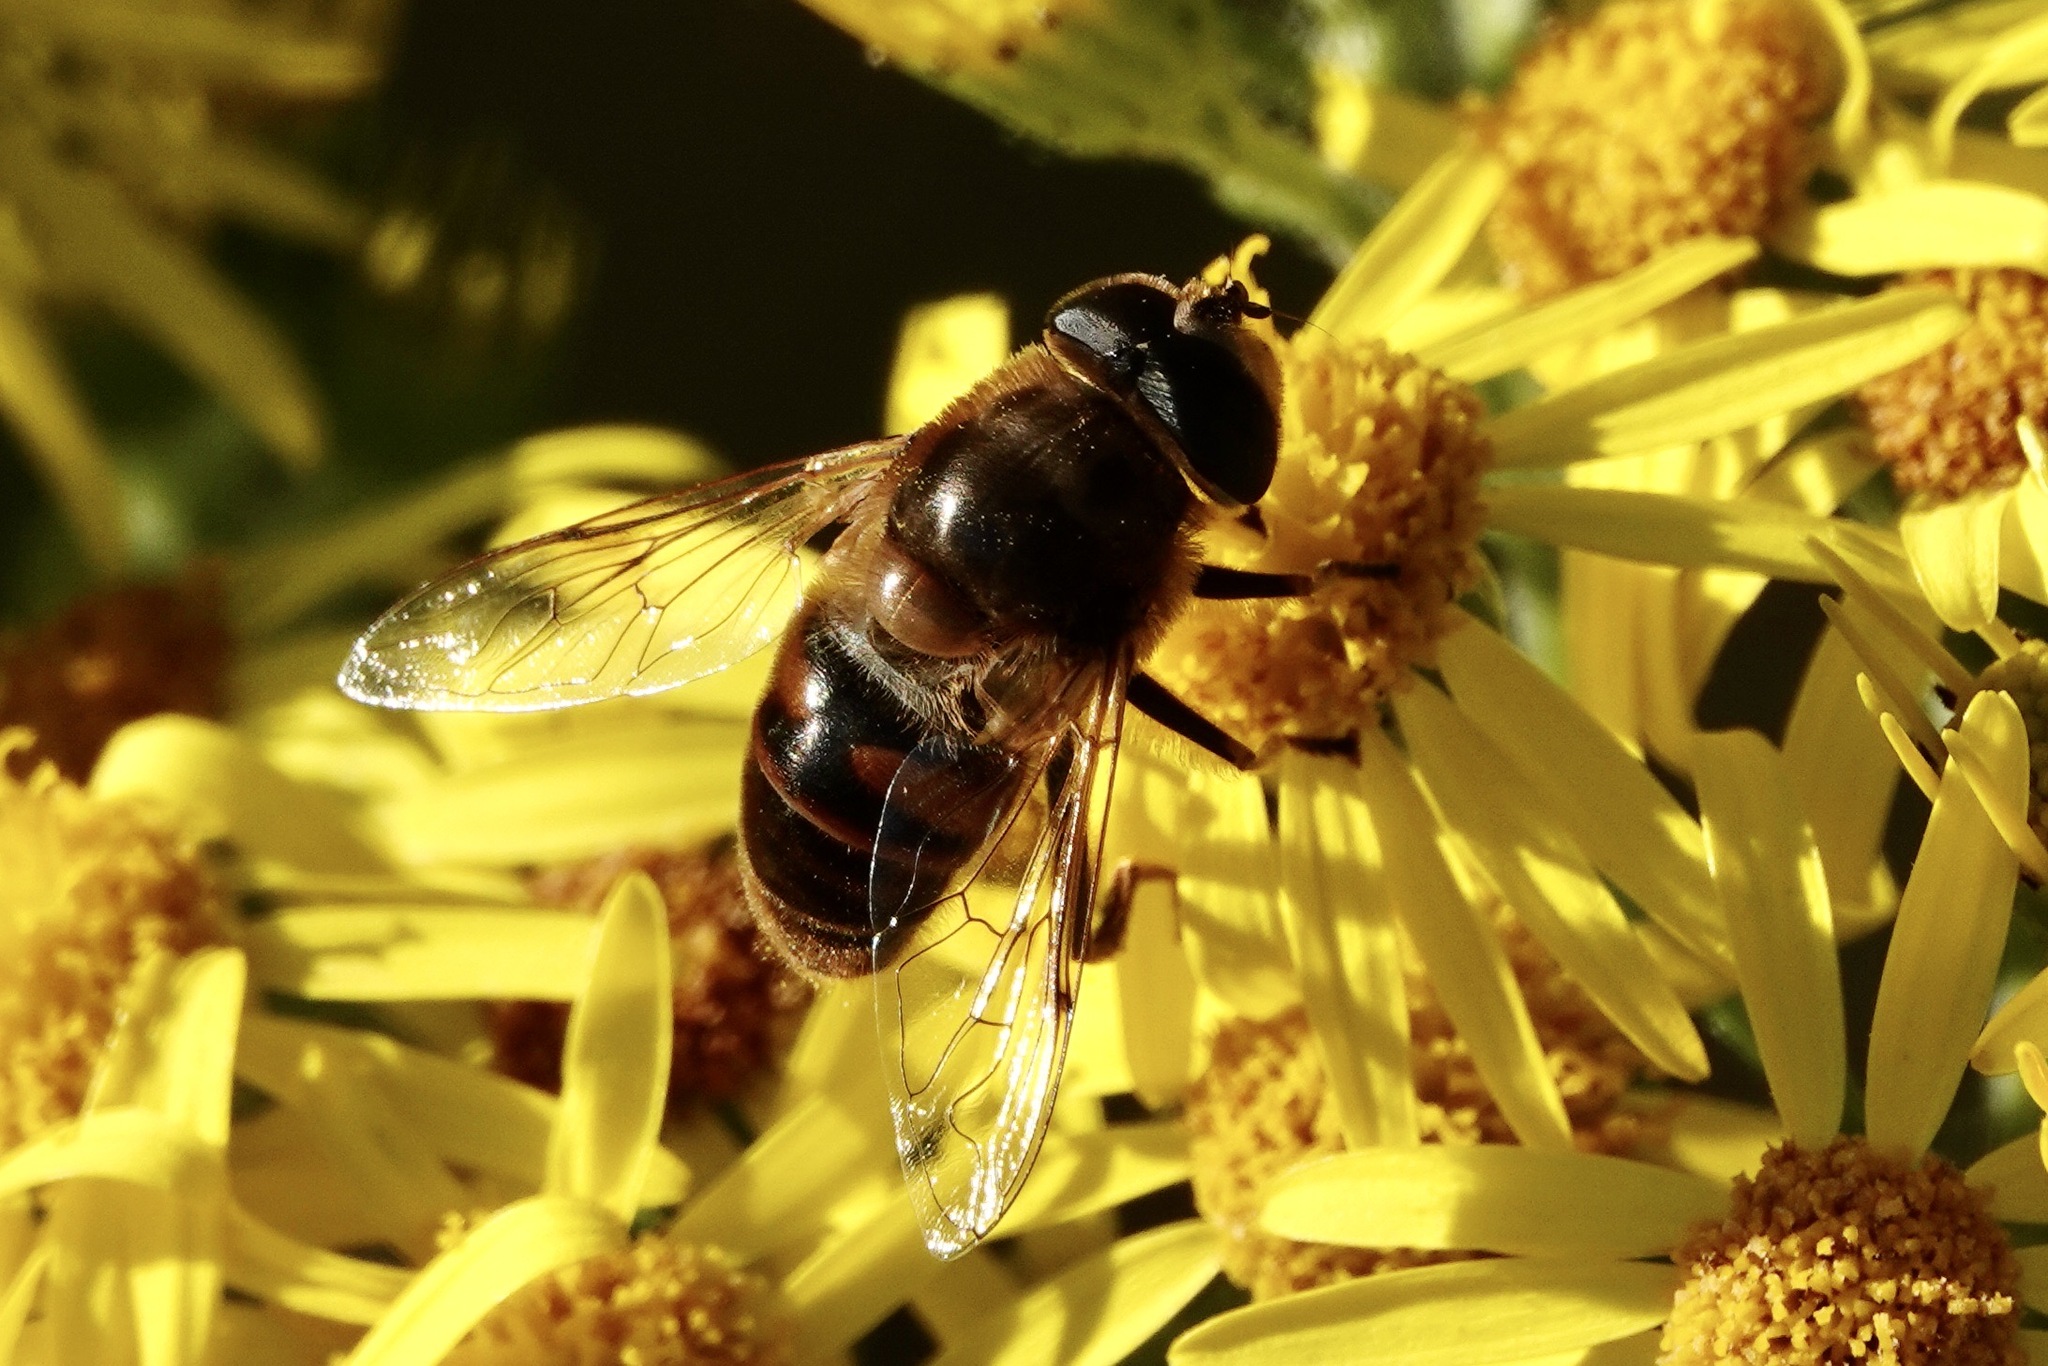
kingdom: Animalia
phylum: Arthropoda
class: Insecta
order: Diptera
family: Syrphidae
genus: Eristalis
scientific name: Eristalis tenax
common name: Drone fly
